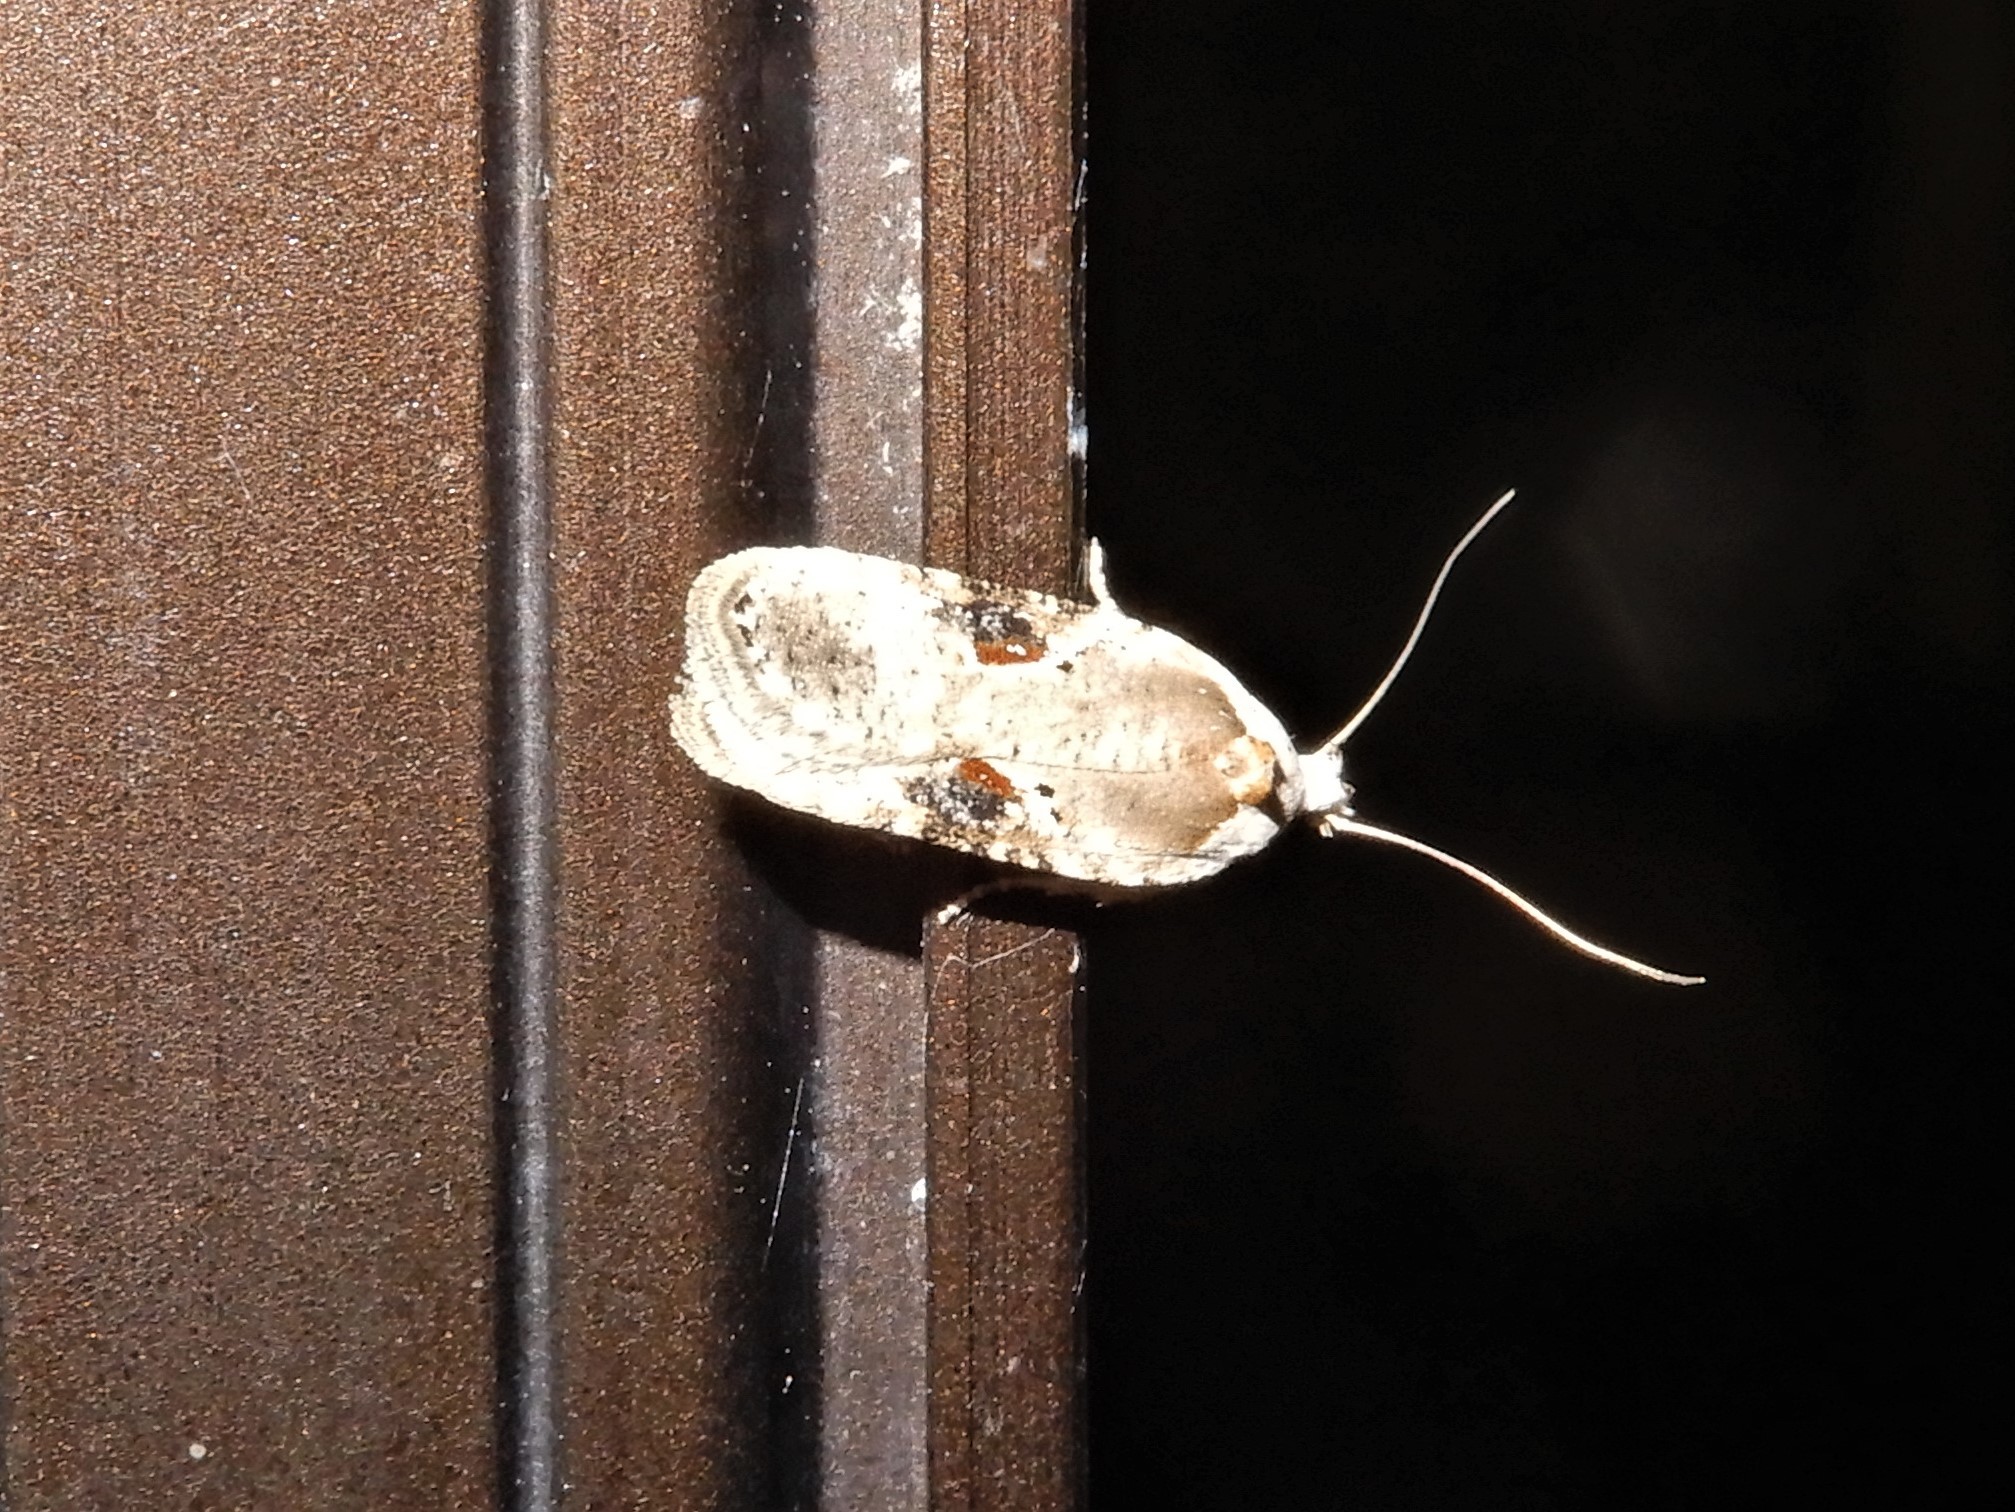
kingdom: Animalia
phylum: Arthropoda
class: Insecta
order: Lepidoptera
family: Depressariidae
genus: Agonopterix
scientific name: Agonopterix alstroemeriana
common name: Moth
